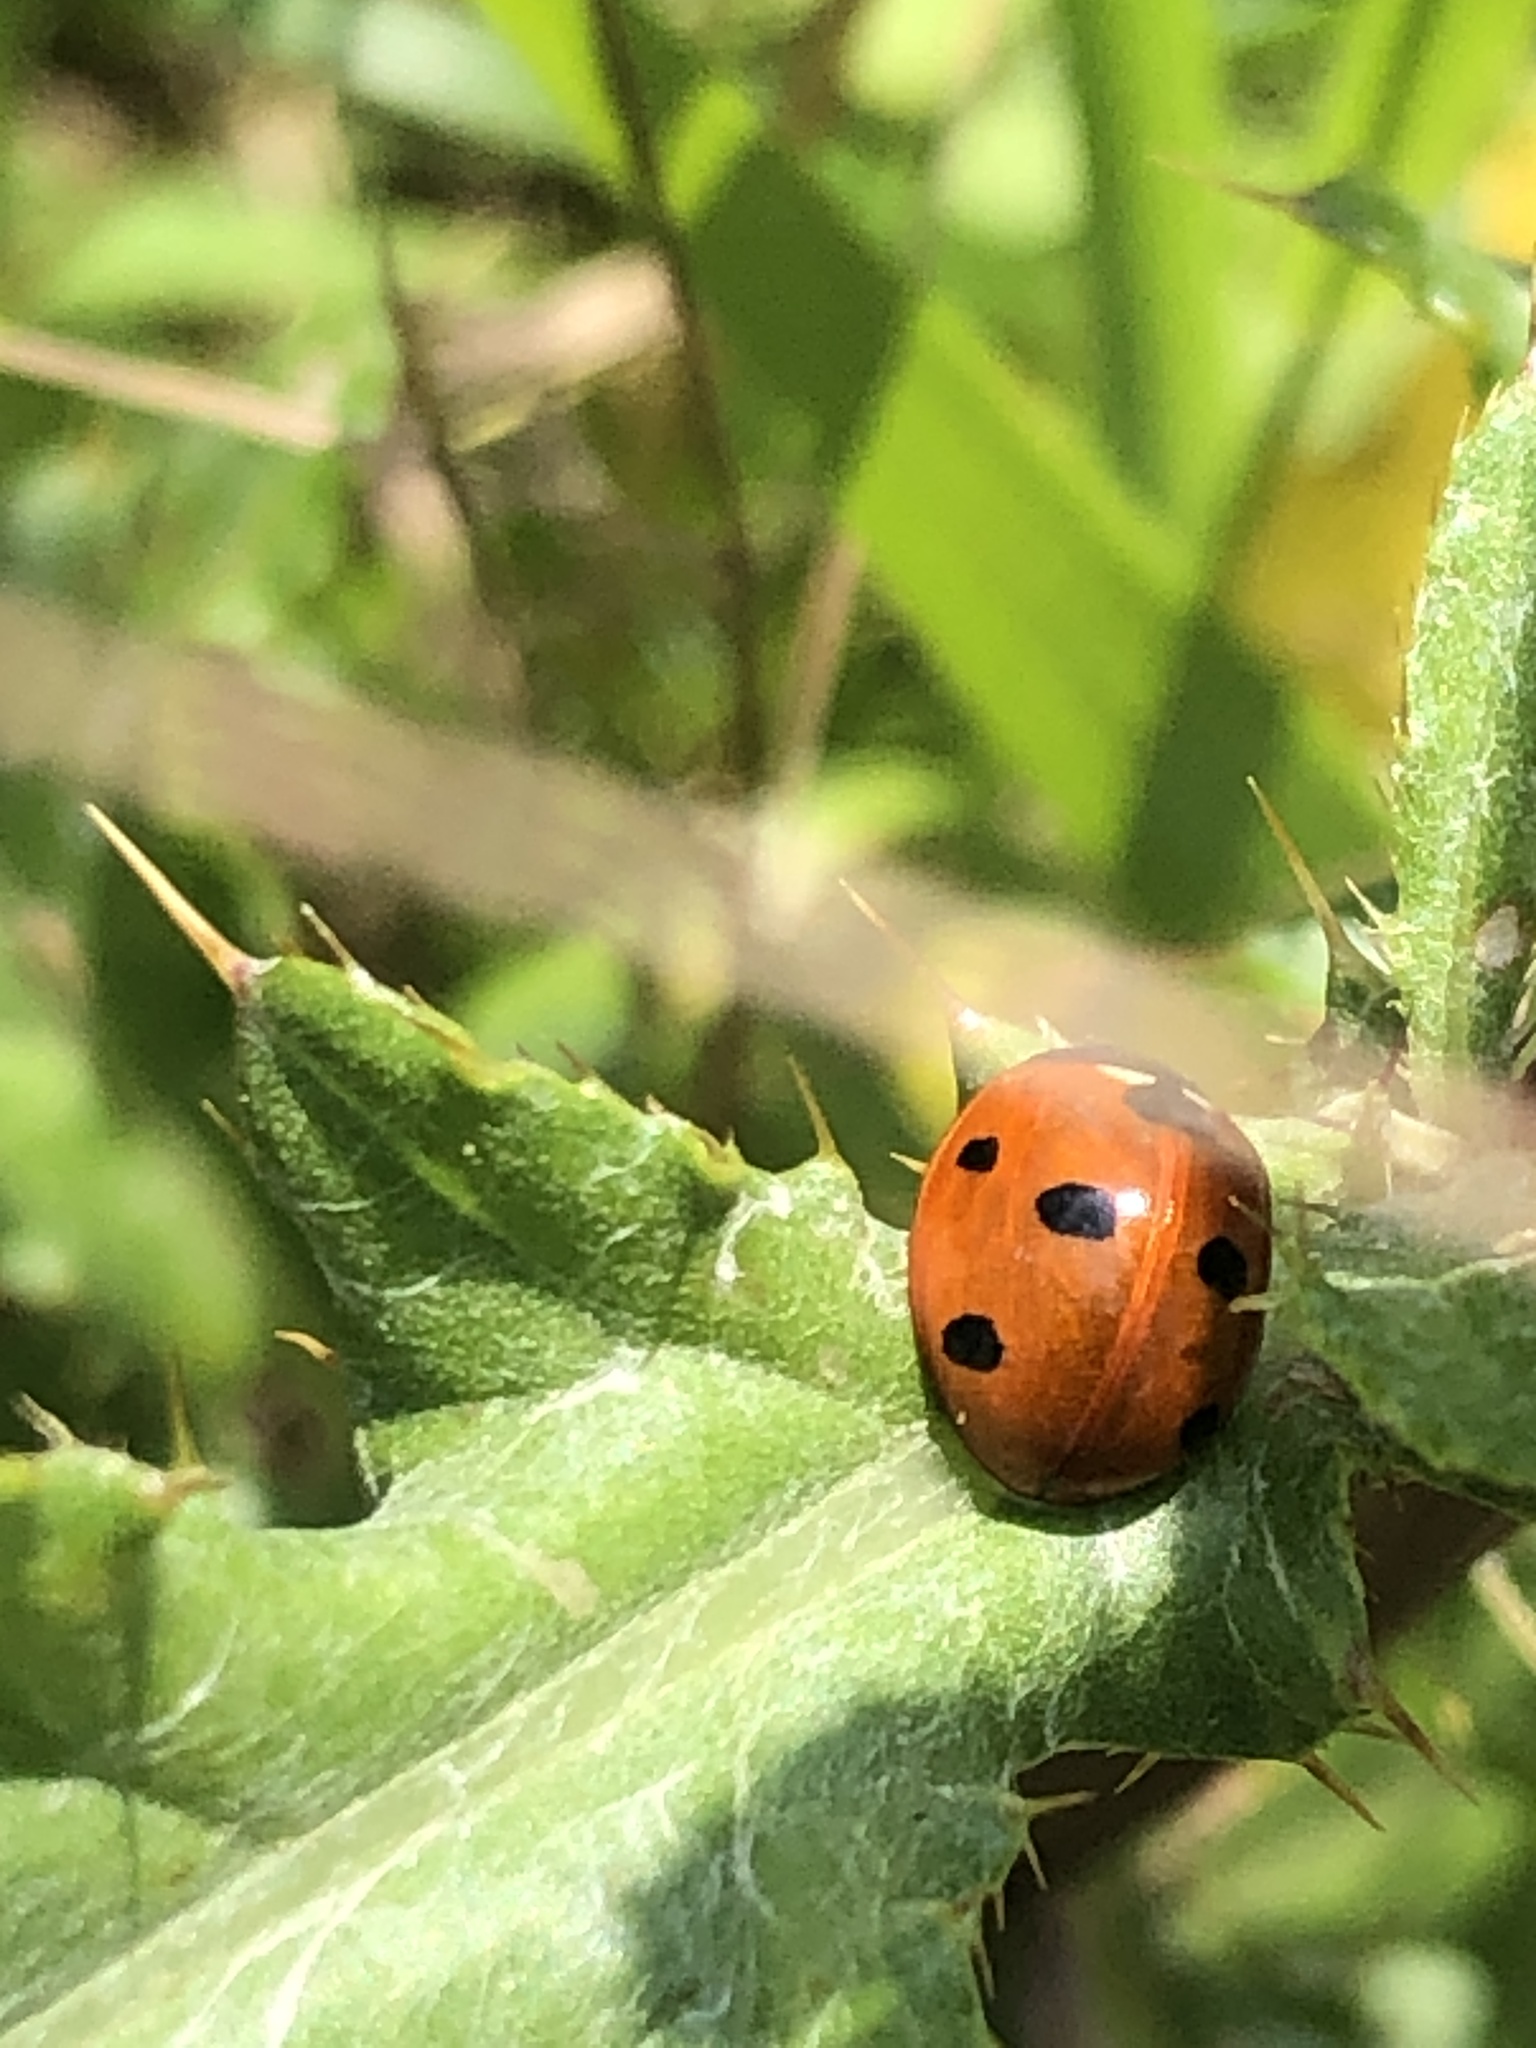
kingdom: Animalia
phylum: Arthropoda
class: Insecta
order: Coleoptera
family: Coccinellidae
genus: Coccinella
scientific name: Coccinella septempunctata
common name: Sevenspotted lady beetle
